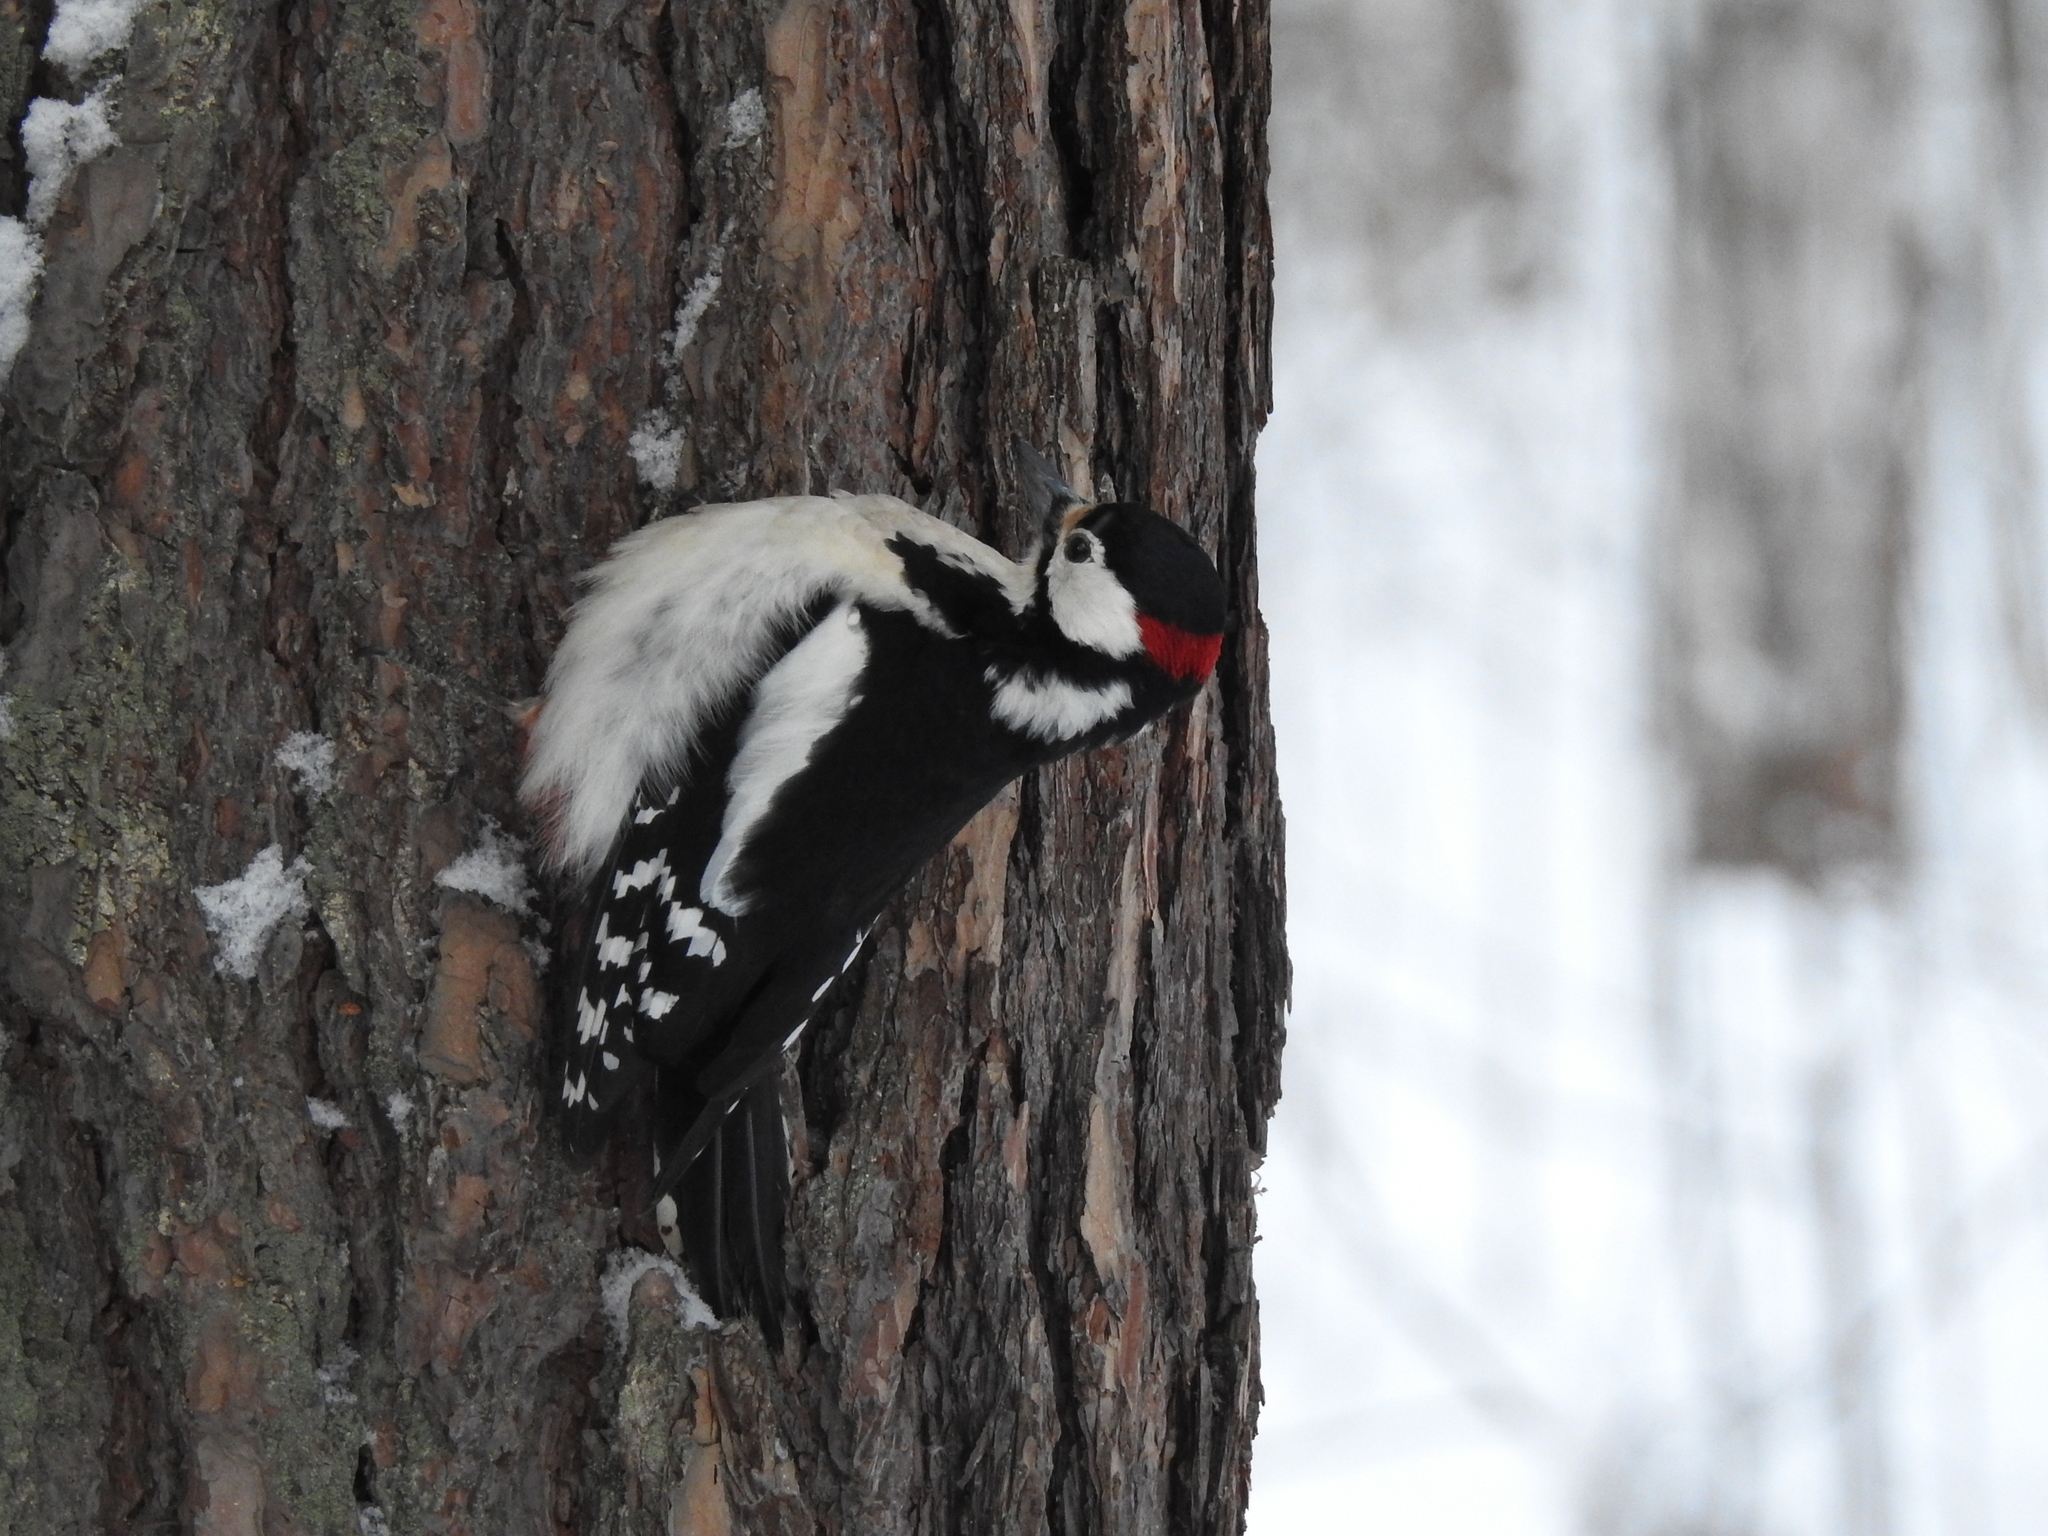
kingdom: Animalia
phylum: Chordata
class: Aves
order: Piciformes
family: Picidae
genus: Dendrocopos
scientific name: Dendrocopos major
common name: Great spotted woodpecker
